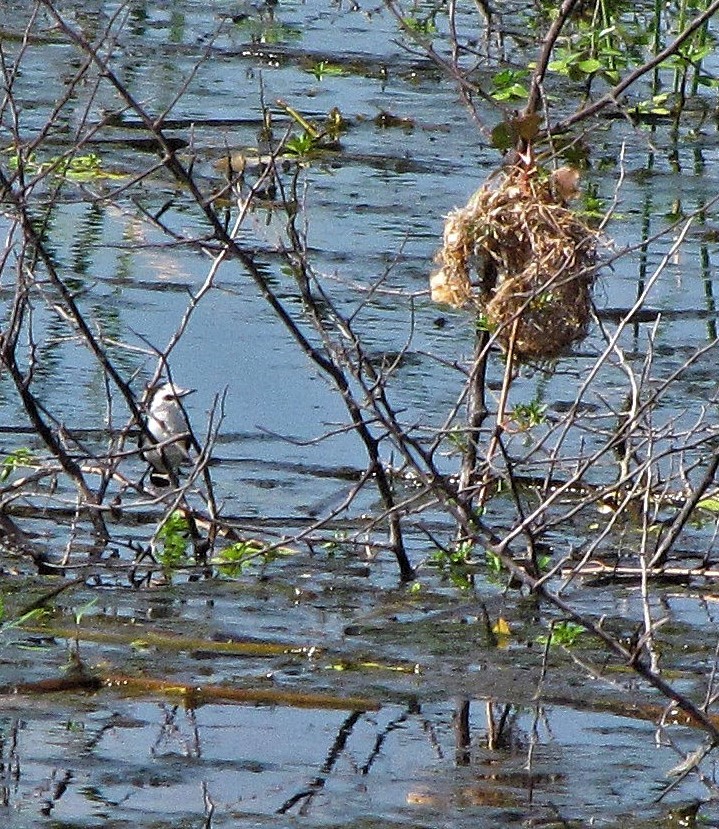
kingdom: Animalia
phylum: Chordata
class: Aves
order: Passeriformes
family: Tyrannidae
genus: Fluvicola
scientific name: Fluvicola pica
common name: Pied water-tyrant
